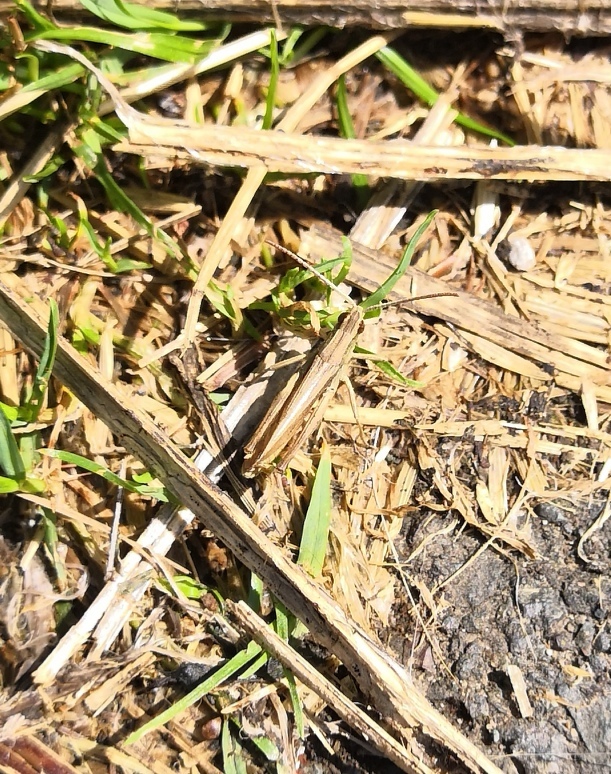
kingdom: Animalia
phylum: Arthropoda
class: Insecta
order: Orthoptera
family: Acrididae
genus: Chorthippus
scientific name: Chorthippus albomarginatus
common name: Lesser marsh grasshopper
